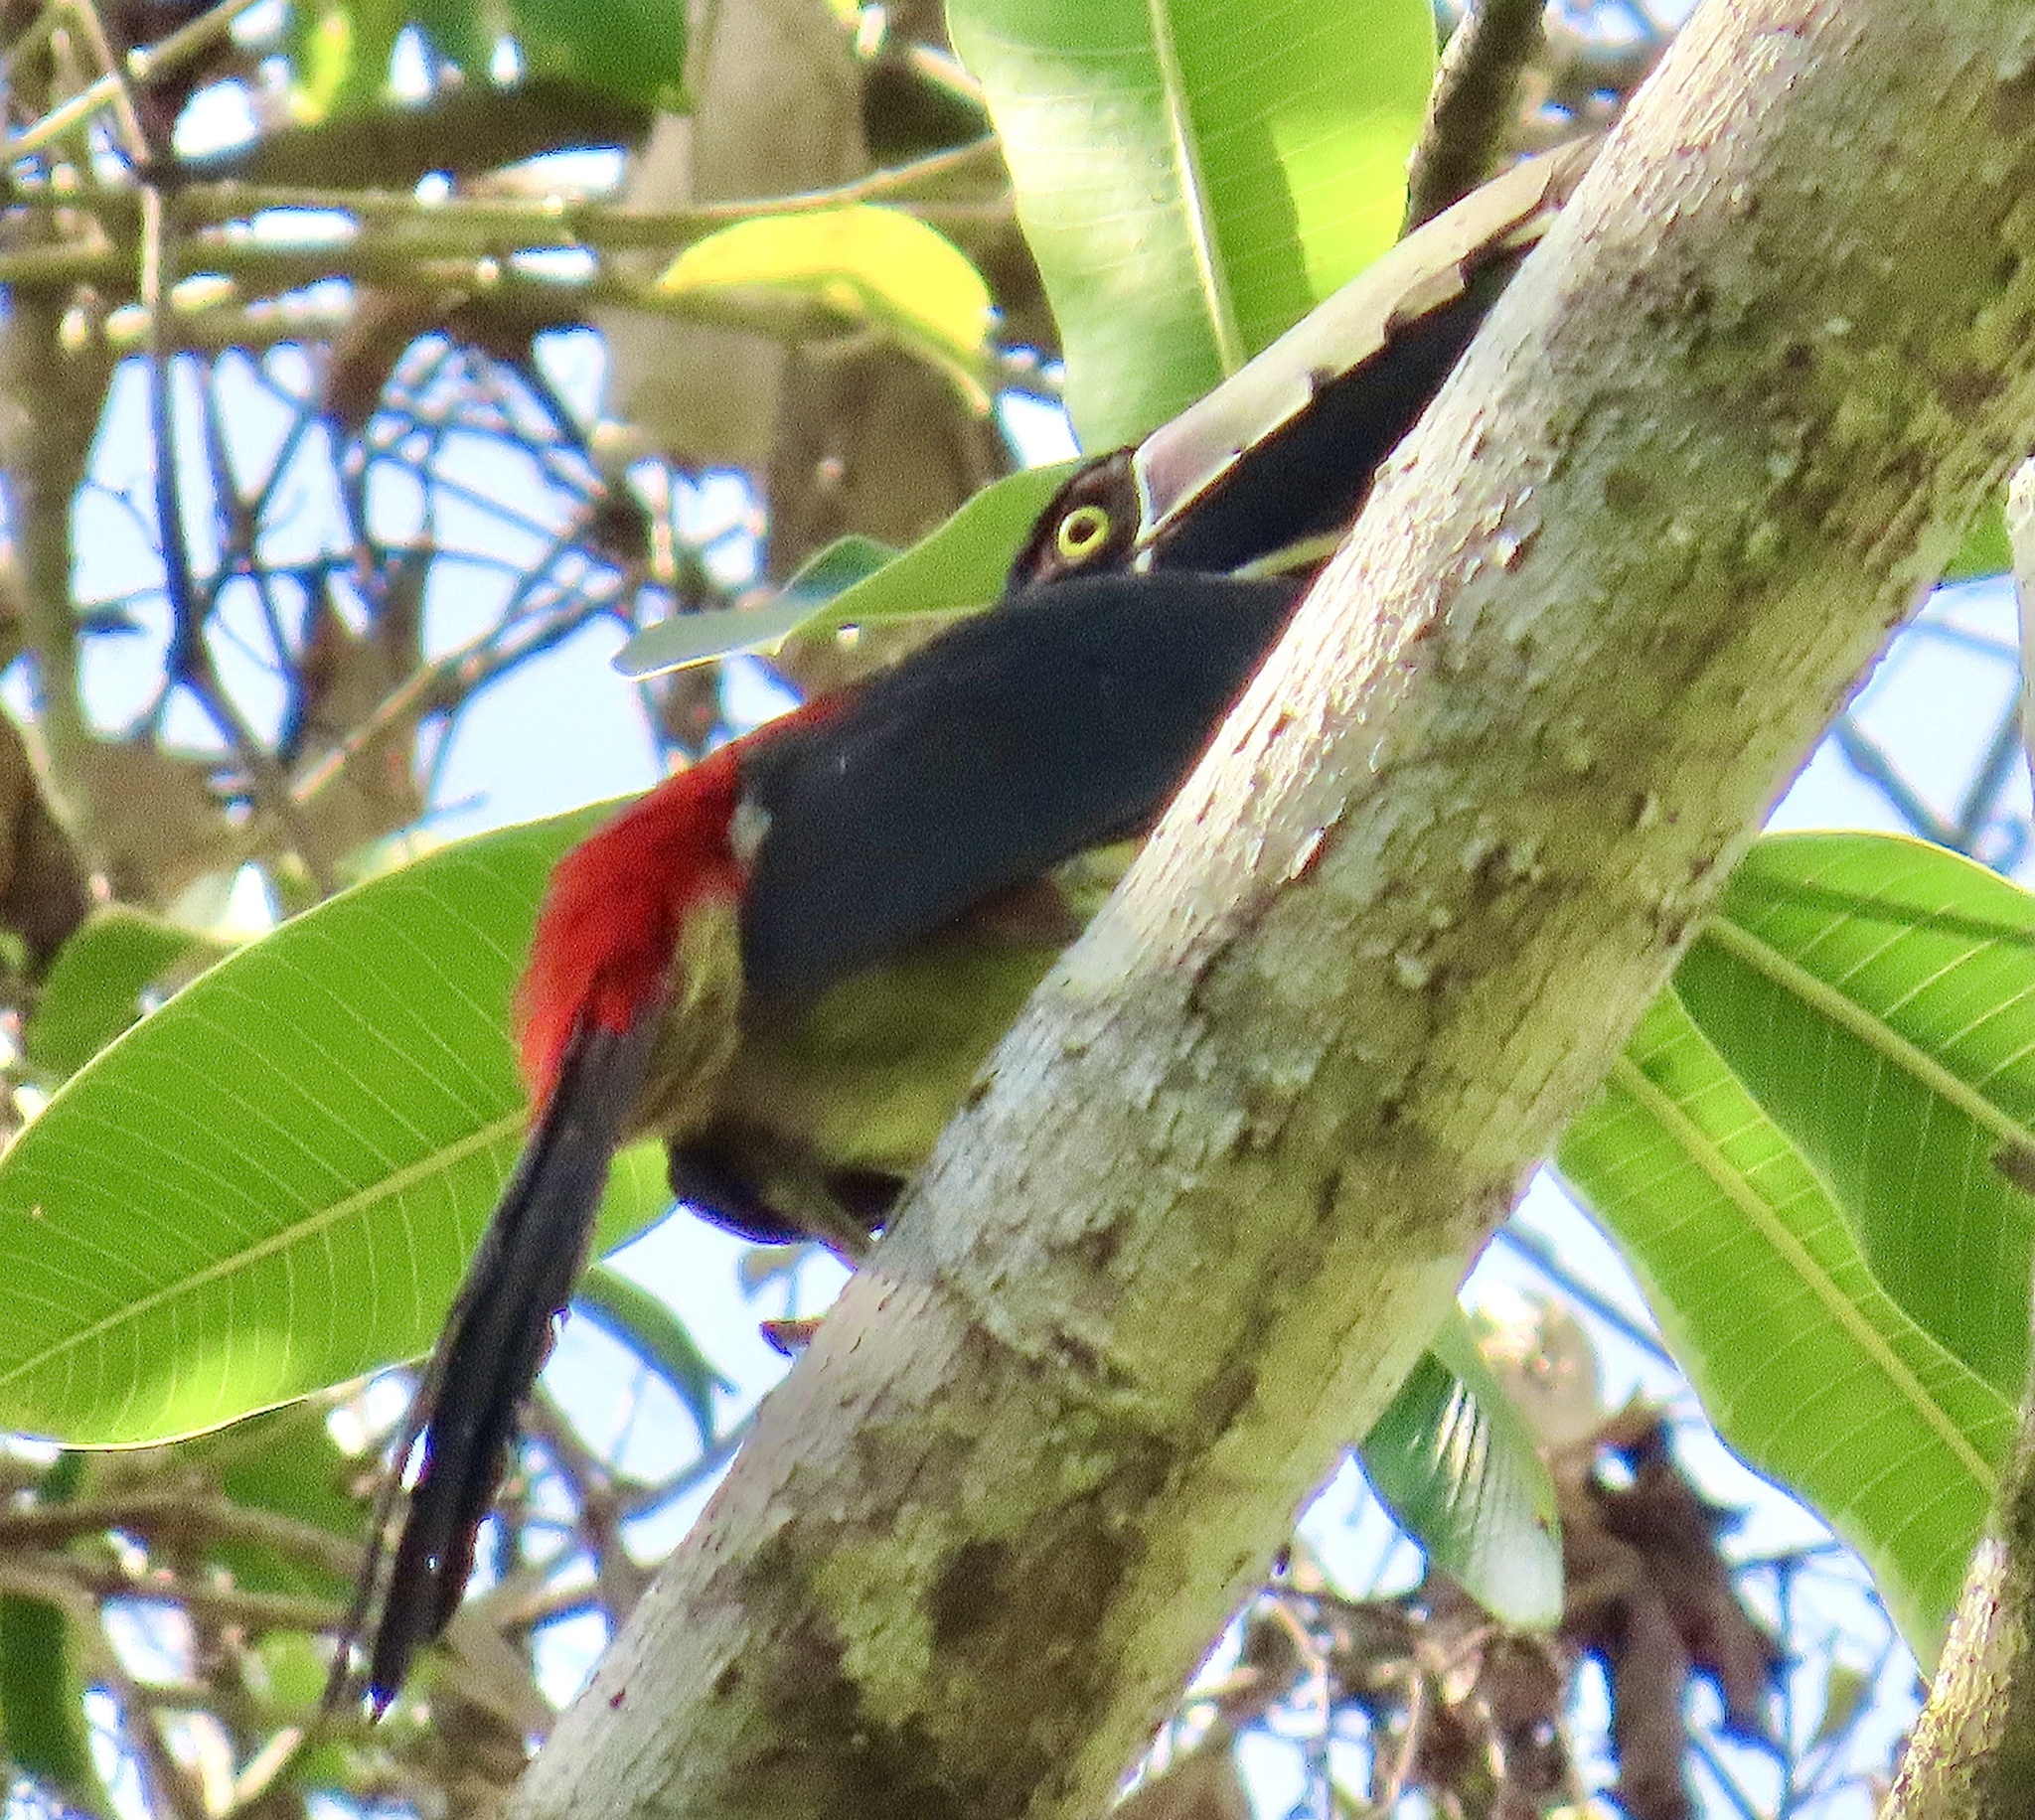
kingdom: Animalia
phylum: Chordata
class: Aves
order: Piciformes
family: Ramphastidae
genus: Pteroglossus
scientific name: Pteroglossus torquatus
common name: Collared aracari
